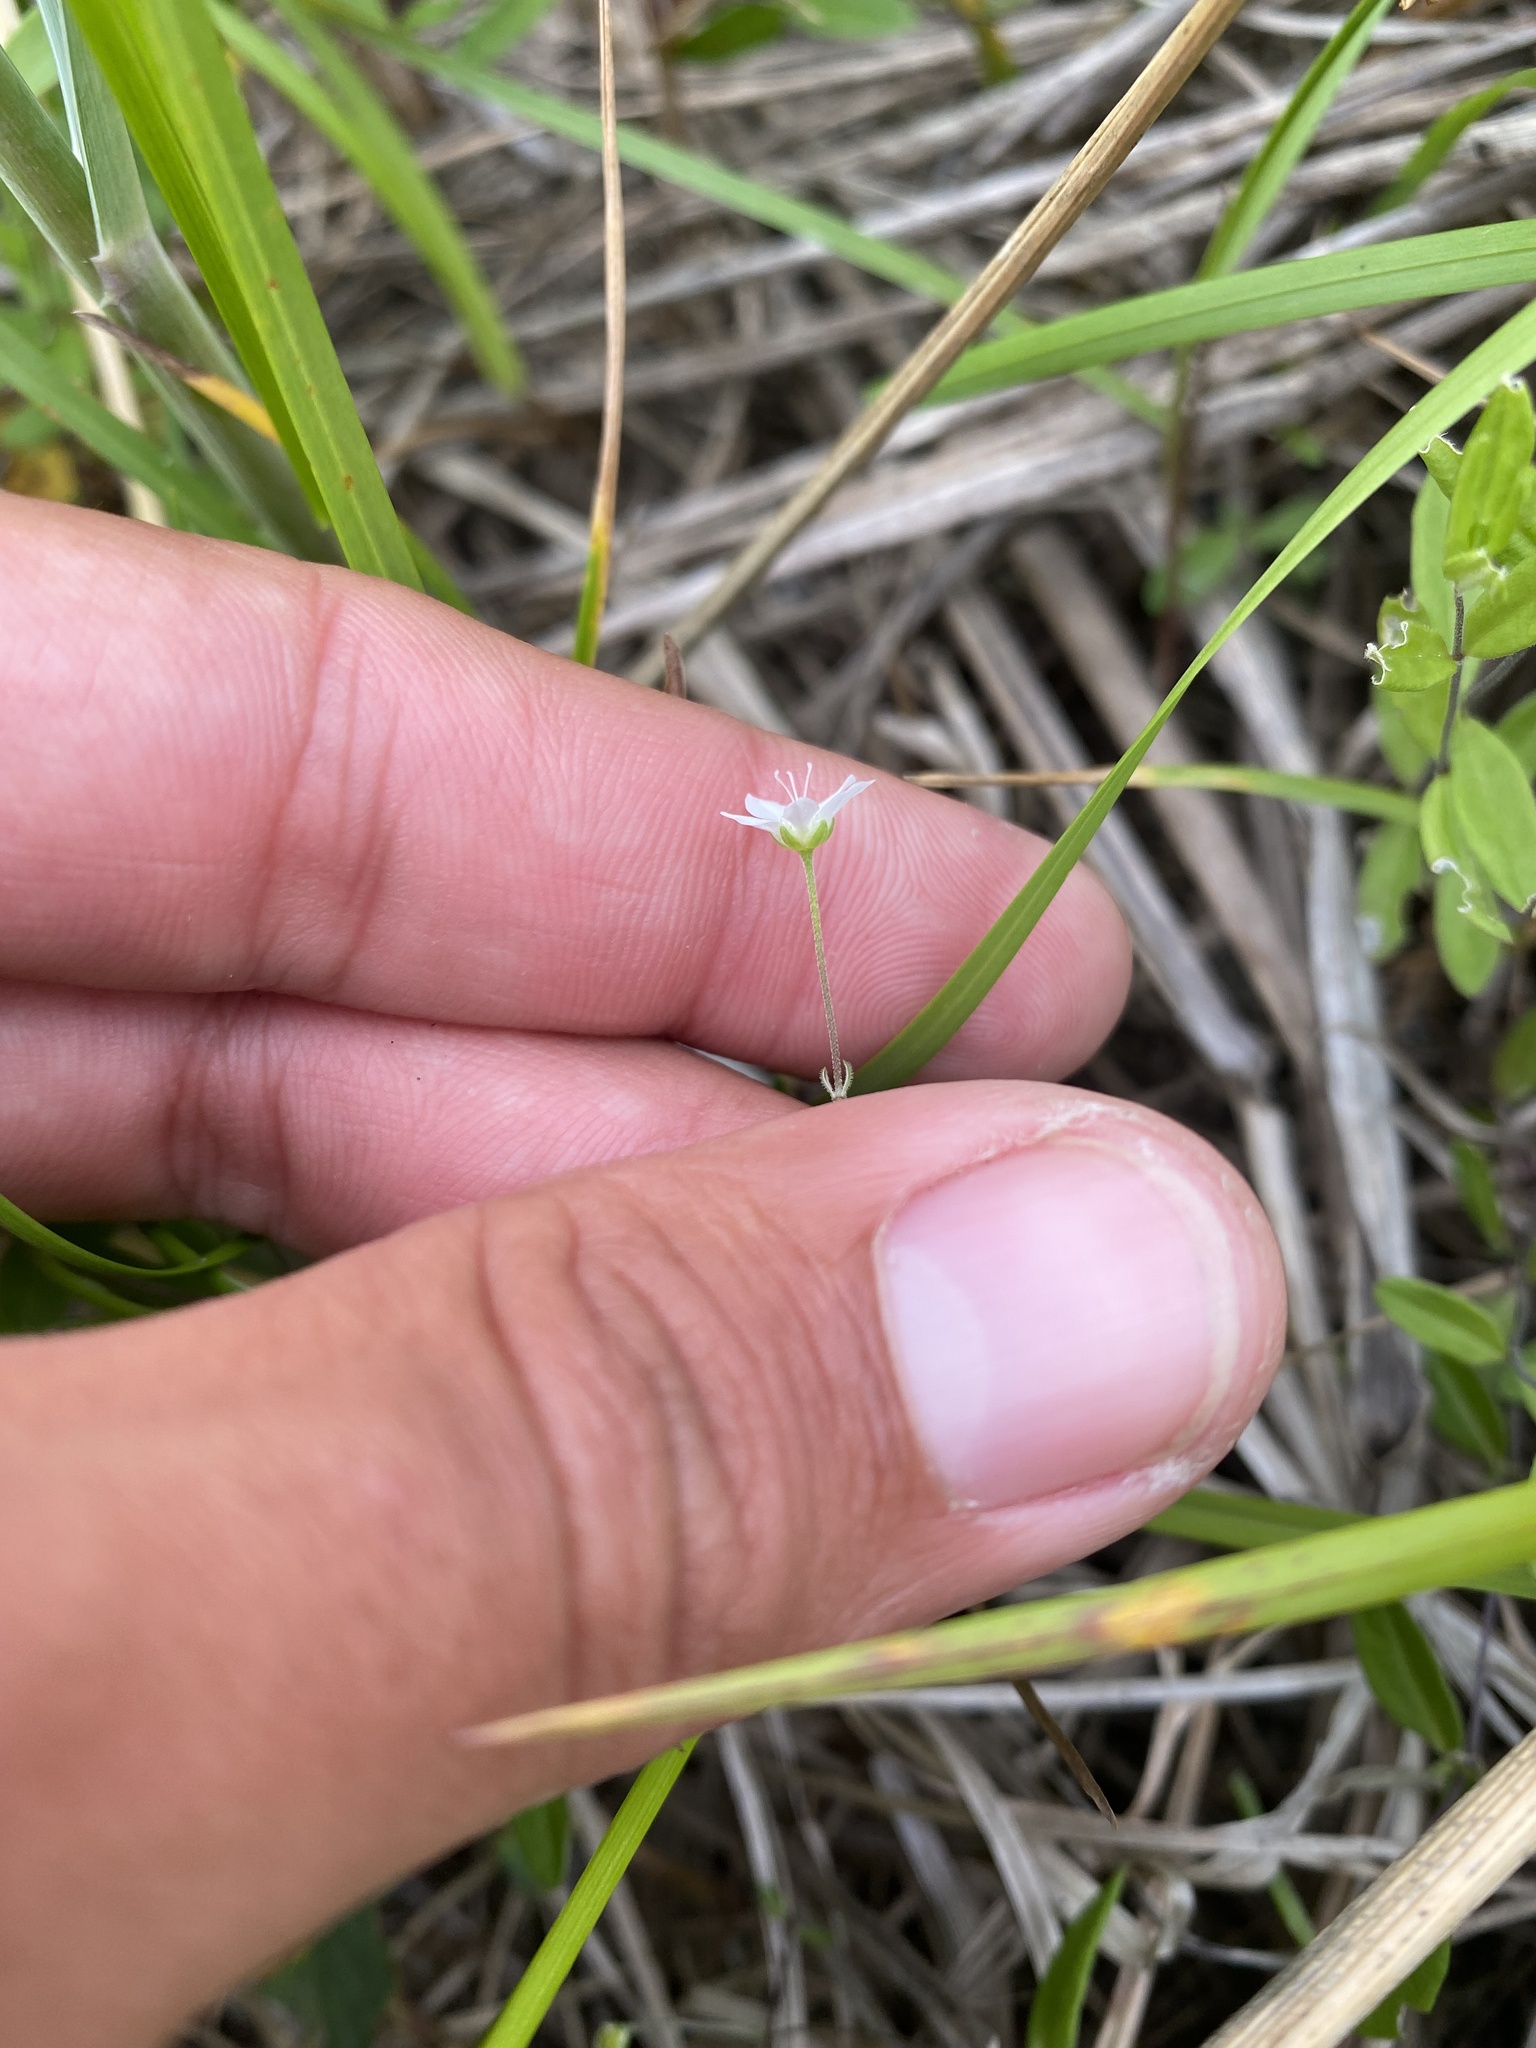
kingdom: Plantae
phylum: Tracheophyta
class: Magnoliopsida
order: Caryophyllales
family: Caryophyllaceae
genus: Moehringia
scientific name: Moehringia lateriflora
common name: Blunt-leaved sandwort
